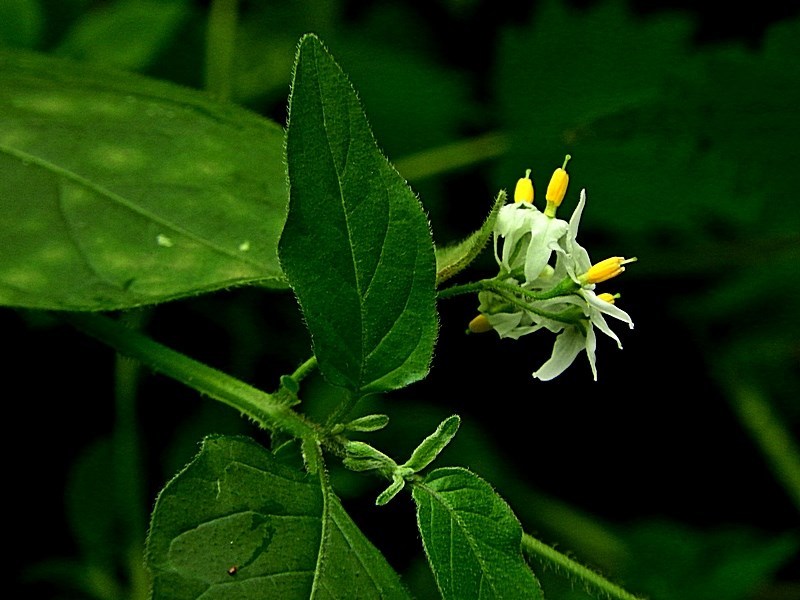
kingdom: Plantae
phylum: Tracheophyta
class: Magnoliopsida
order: Solanales
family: Solanaceae
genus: Solanum
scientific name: Solanum chenopodioides
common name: Tall nightshade
